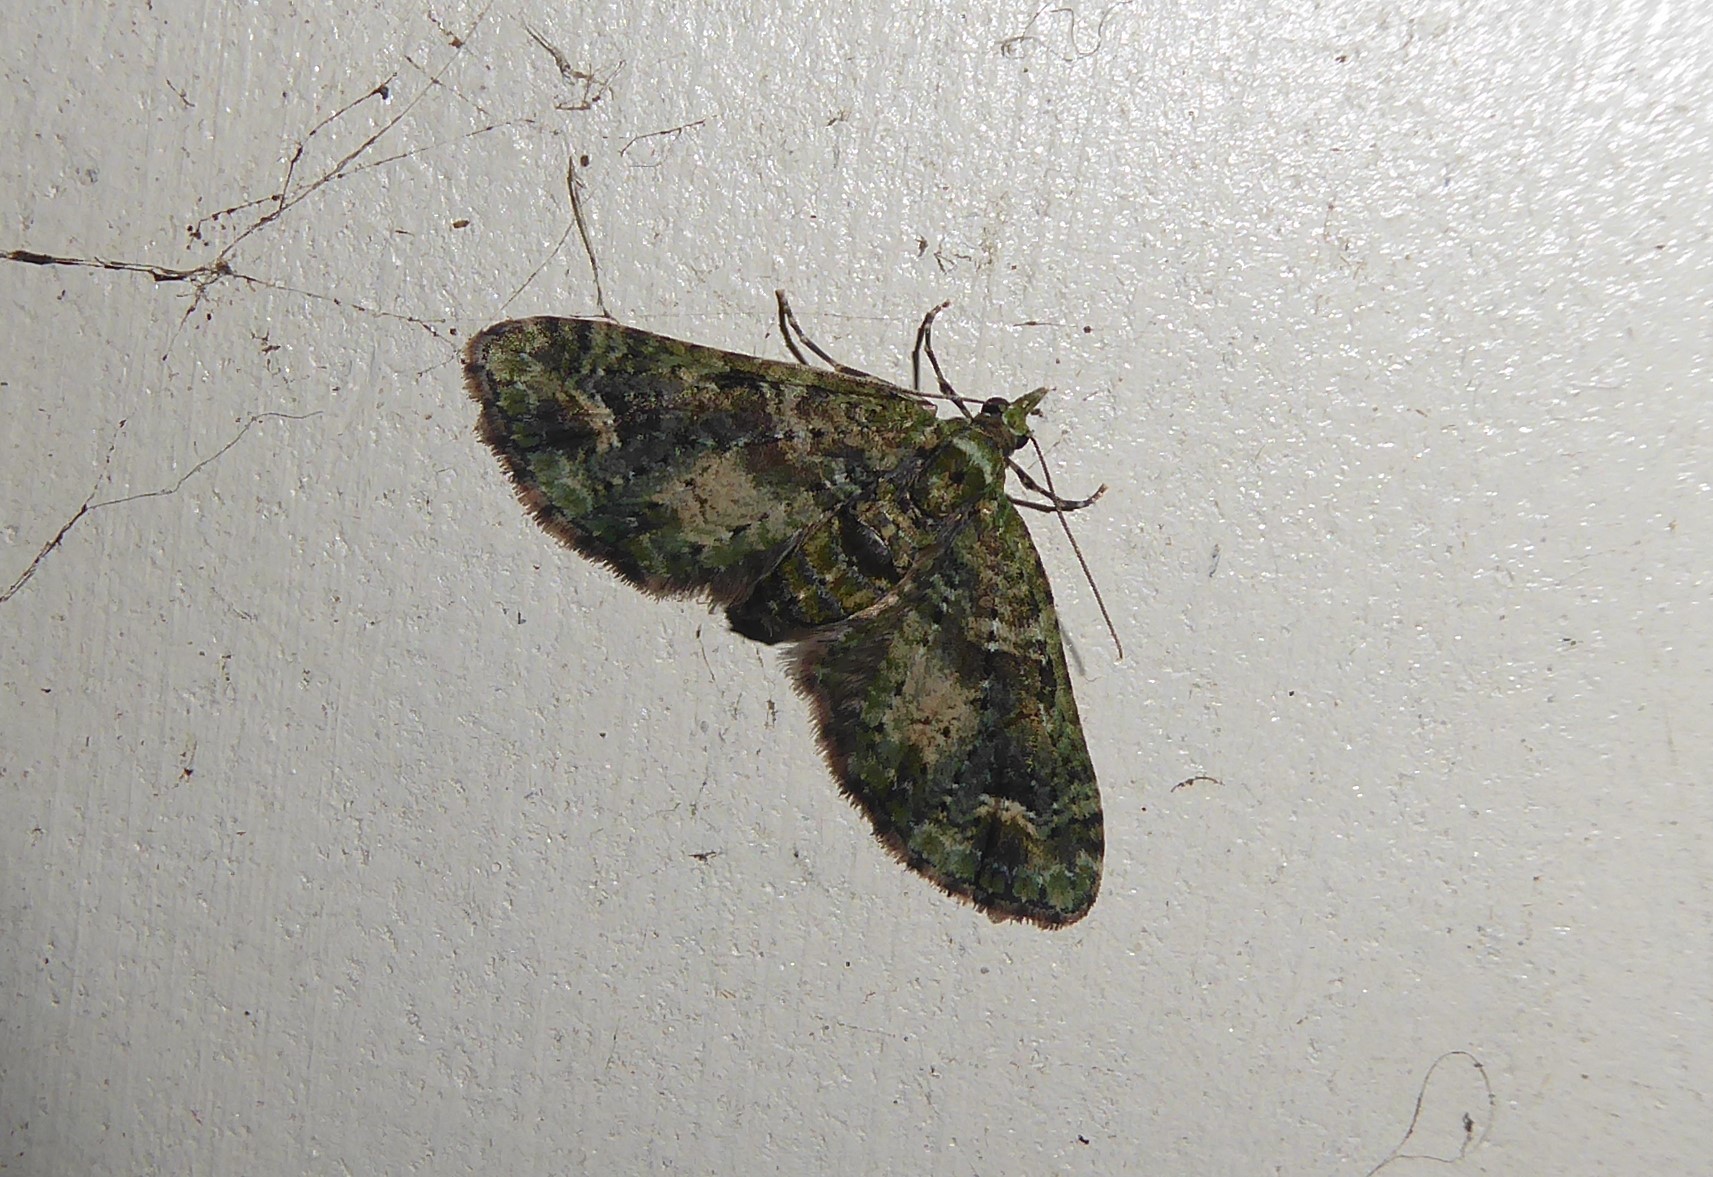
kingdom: Animalia
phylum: Arthropoda
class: Insecta
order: Lepidoptera
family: Geometridae
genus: Idaea
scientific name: Idaea mutanda
